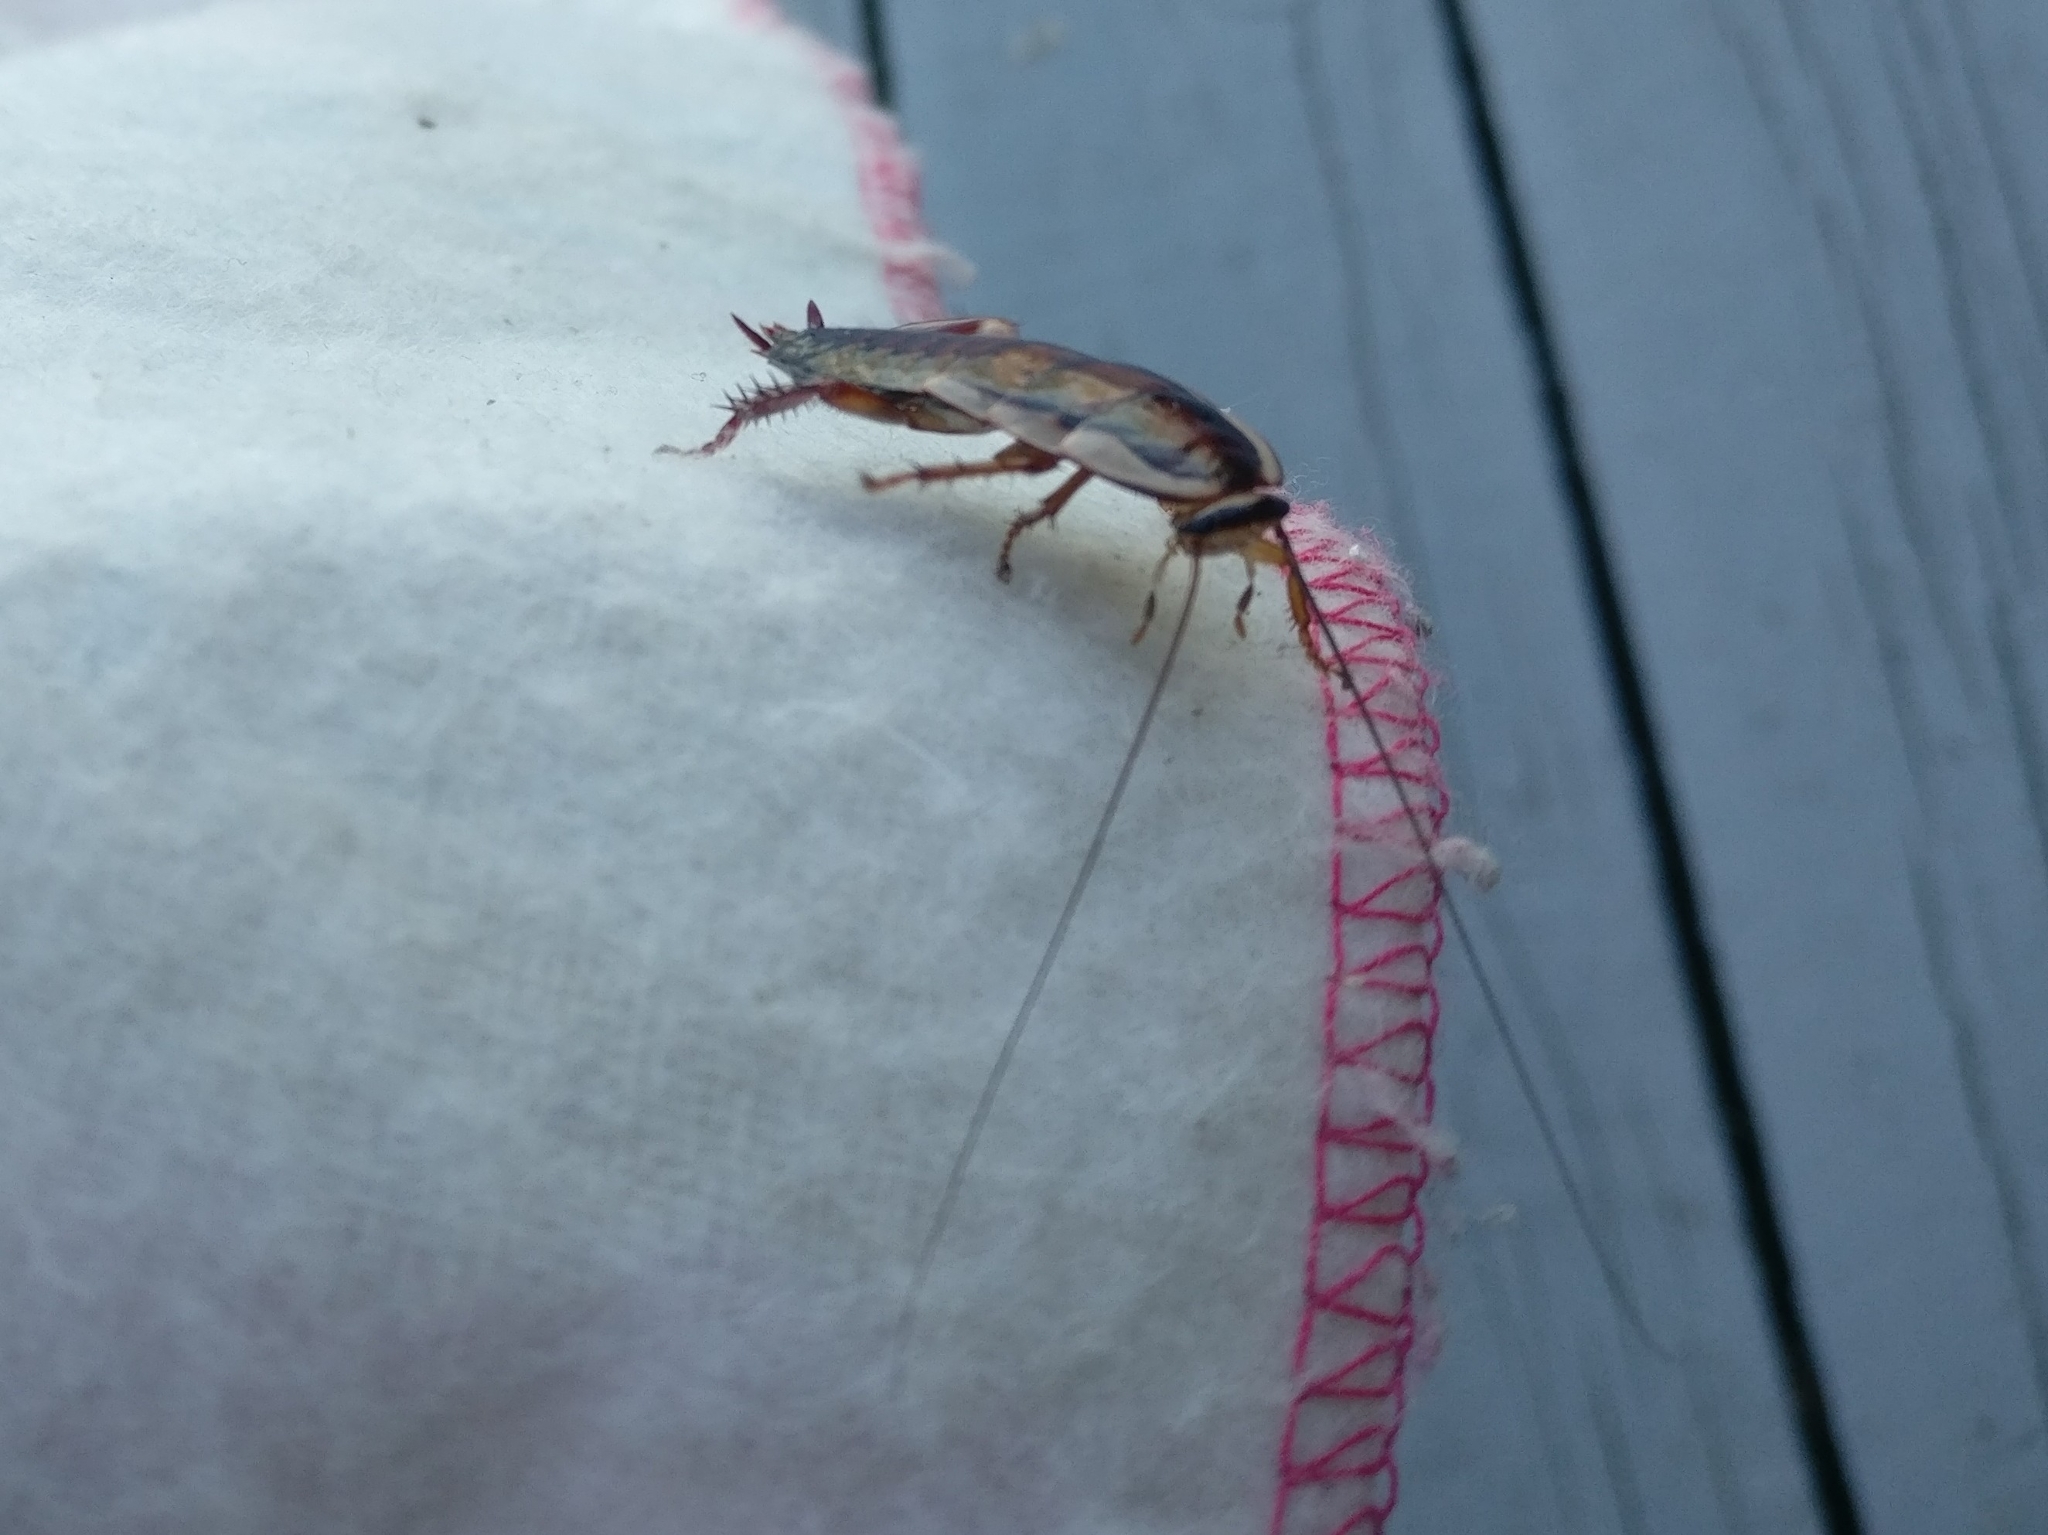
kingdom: Animalia
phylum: Arthropoda
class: Insecta
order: Blattodea
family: Blattidae
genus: Drymaplaneta
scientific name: Drymaplaneta semivitta
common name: Gisborne cockroach
